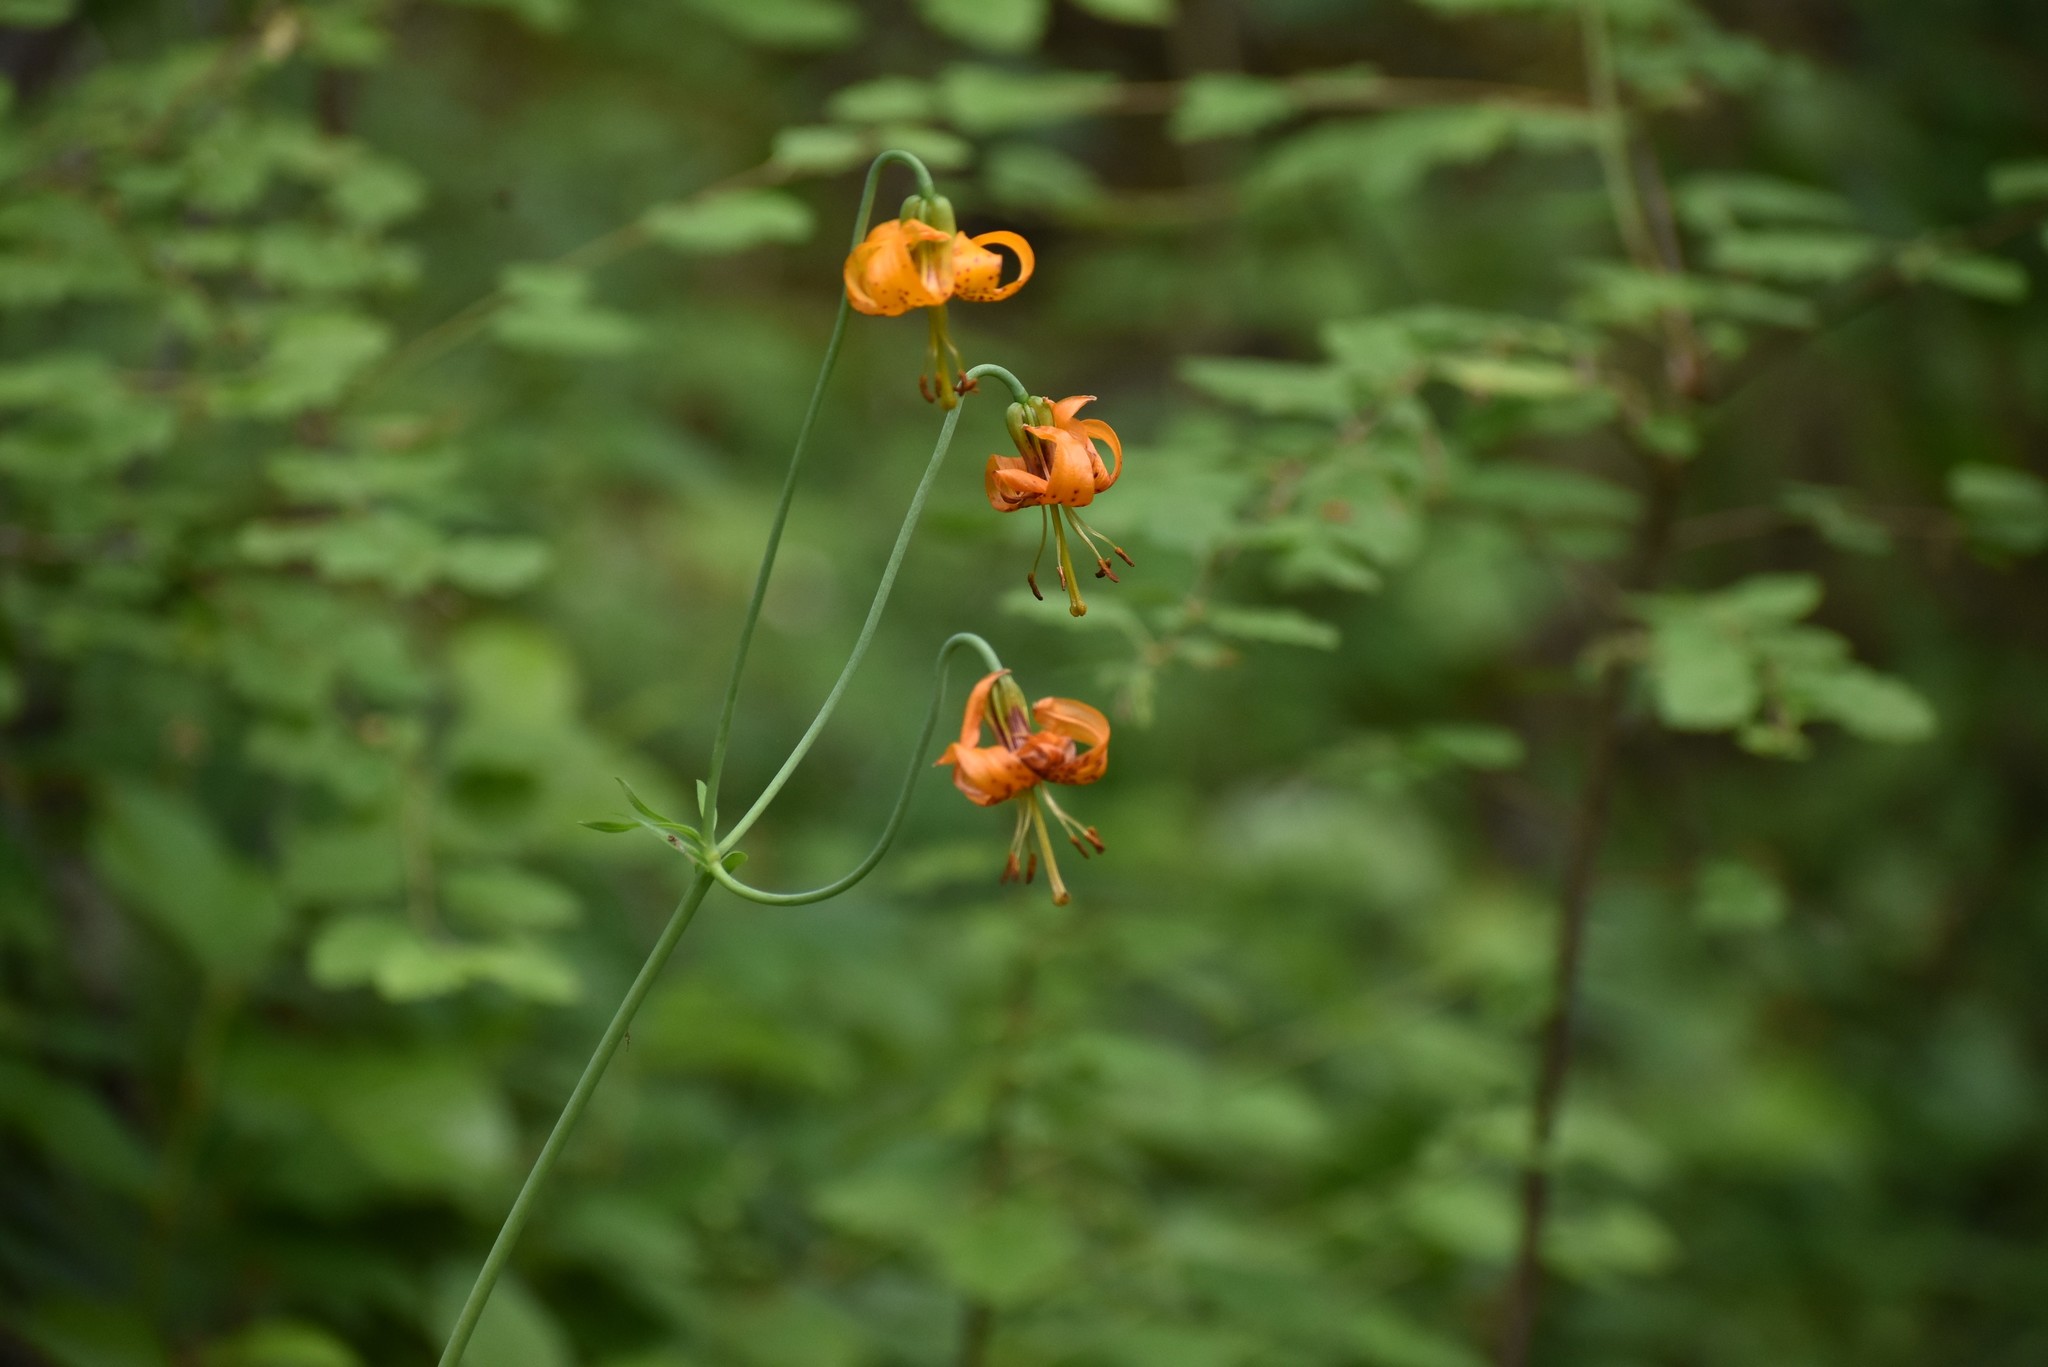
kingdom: Plantae
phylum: Tracheophyta
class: Liliopsida
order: Liliales
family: Liliaceae
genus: Lilium
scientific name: Lilium columbianum
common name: Columbia lily
